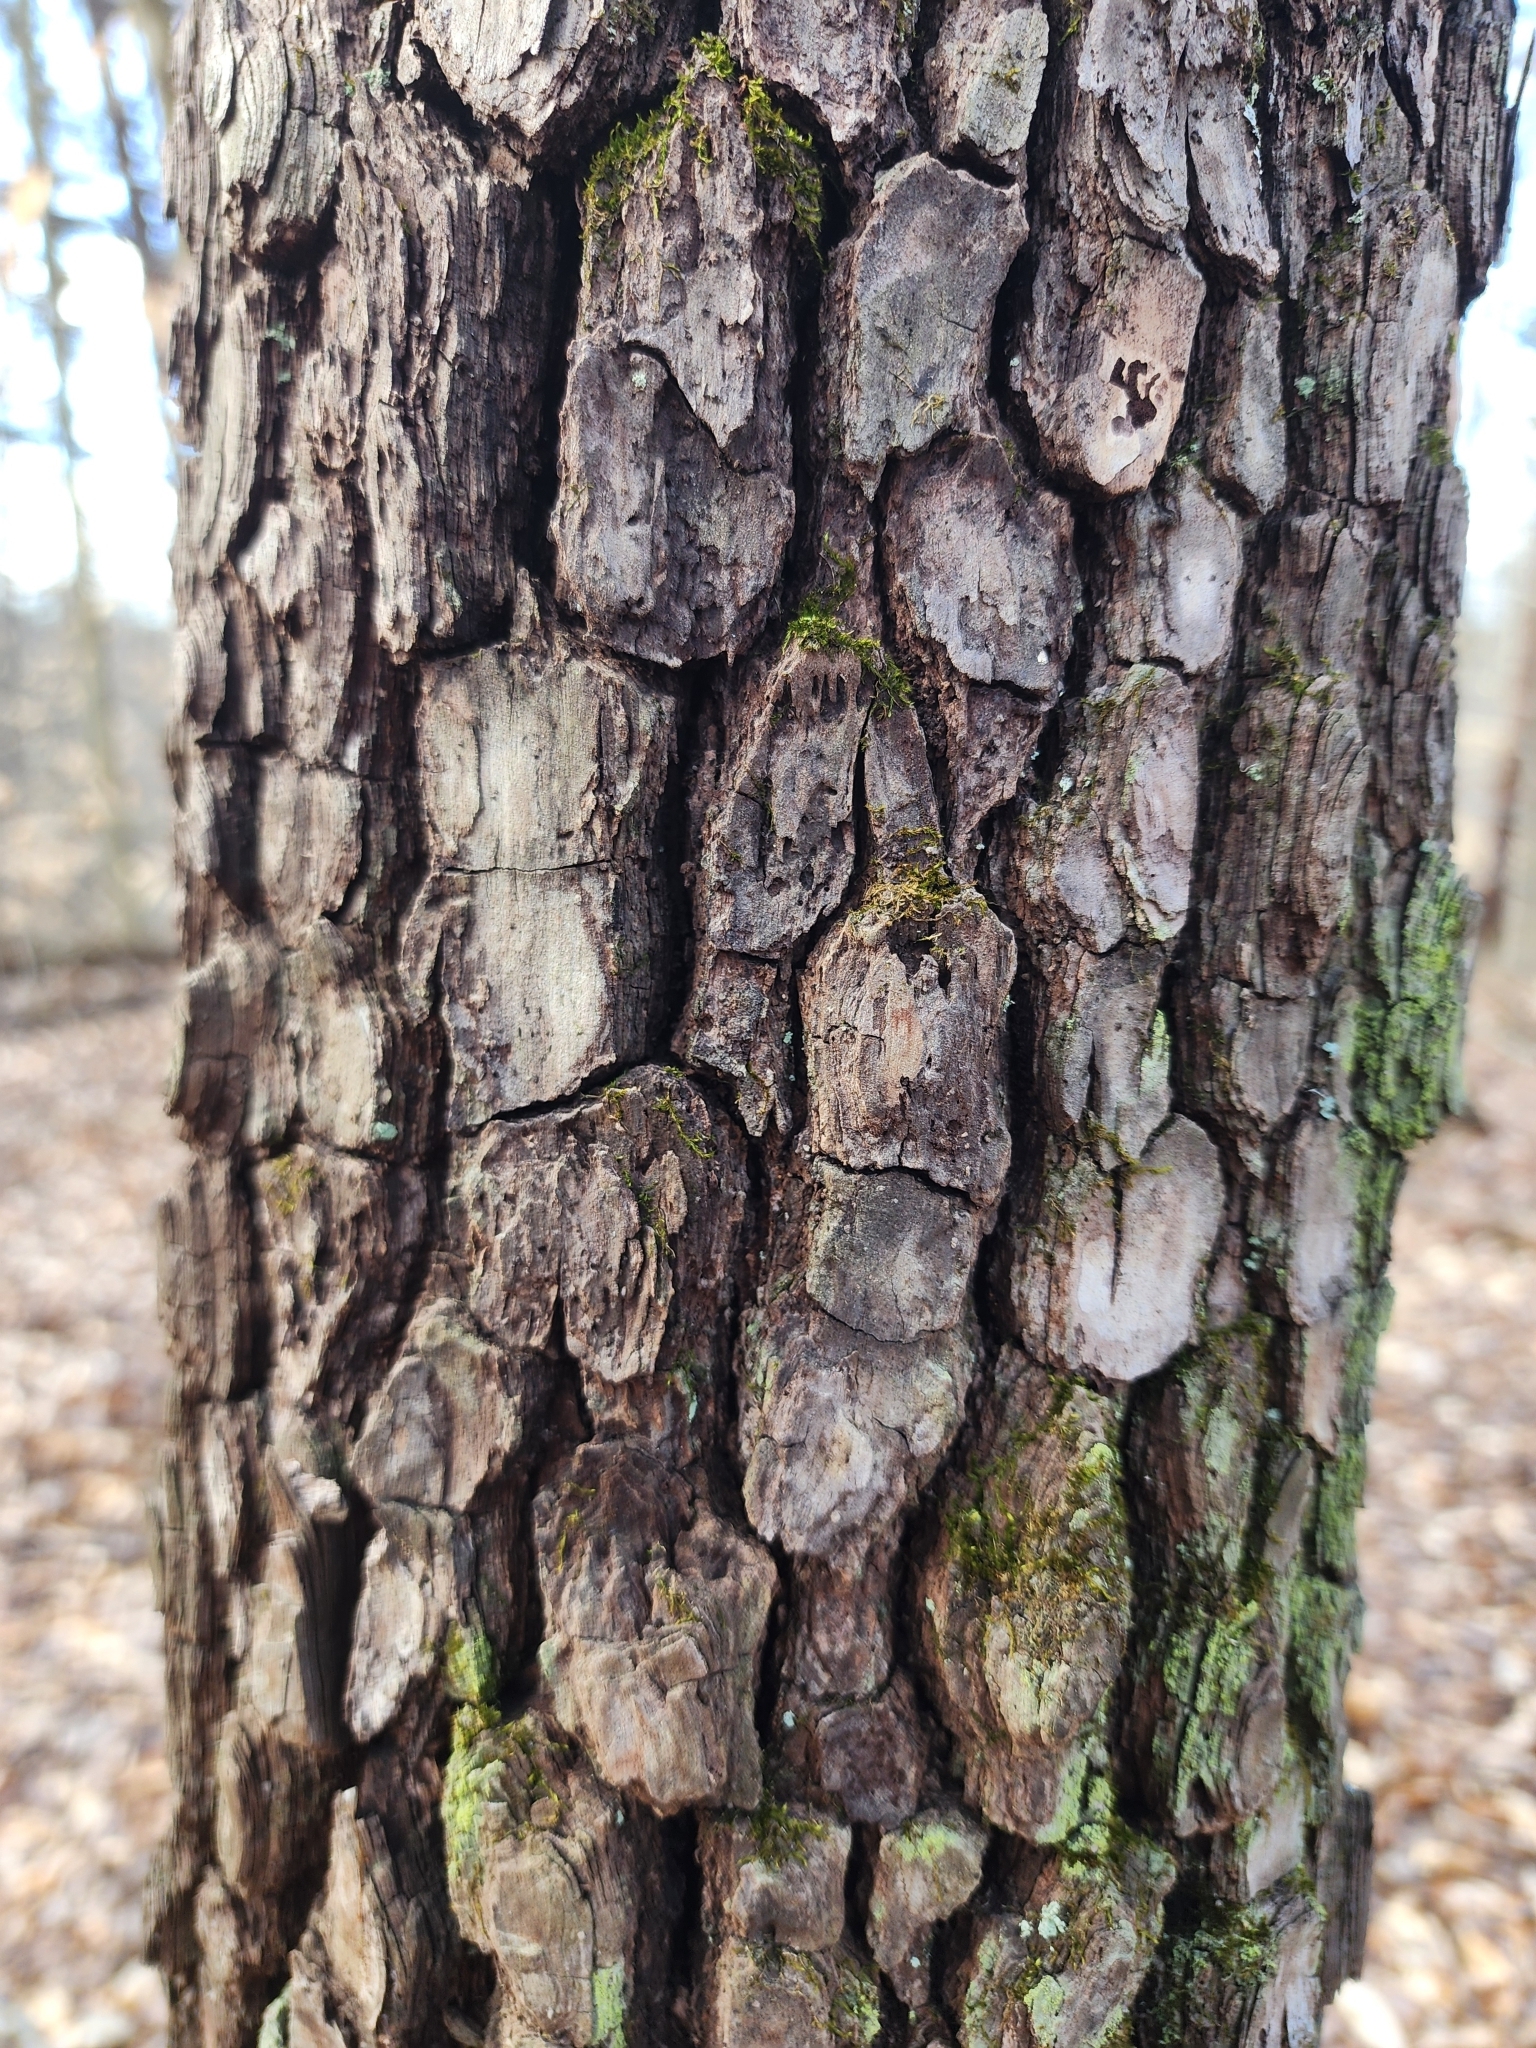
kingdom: Plantae
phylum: Tracheophyta
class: Magnoliopsida
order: Ericales
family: Ebenaceae
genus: Diospyros
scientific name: Diospyros virginiana
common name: Persimmon
